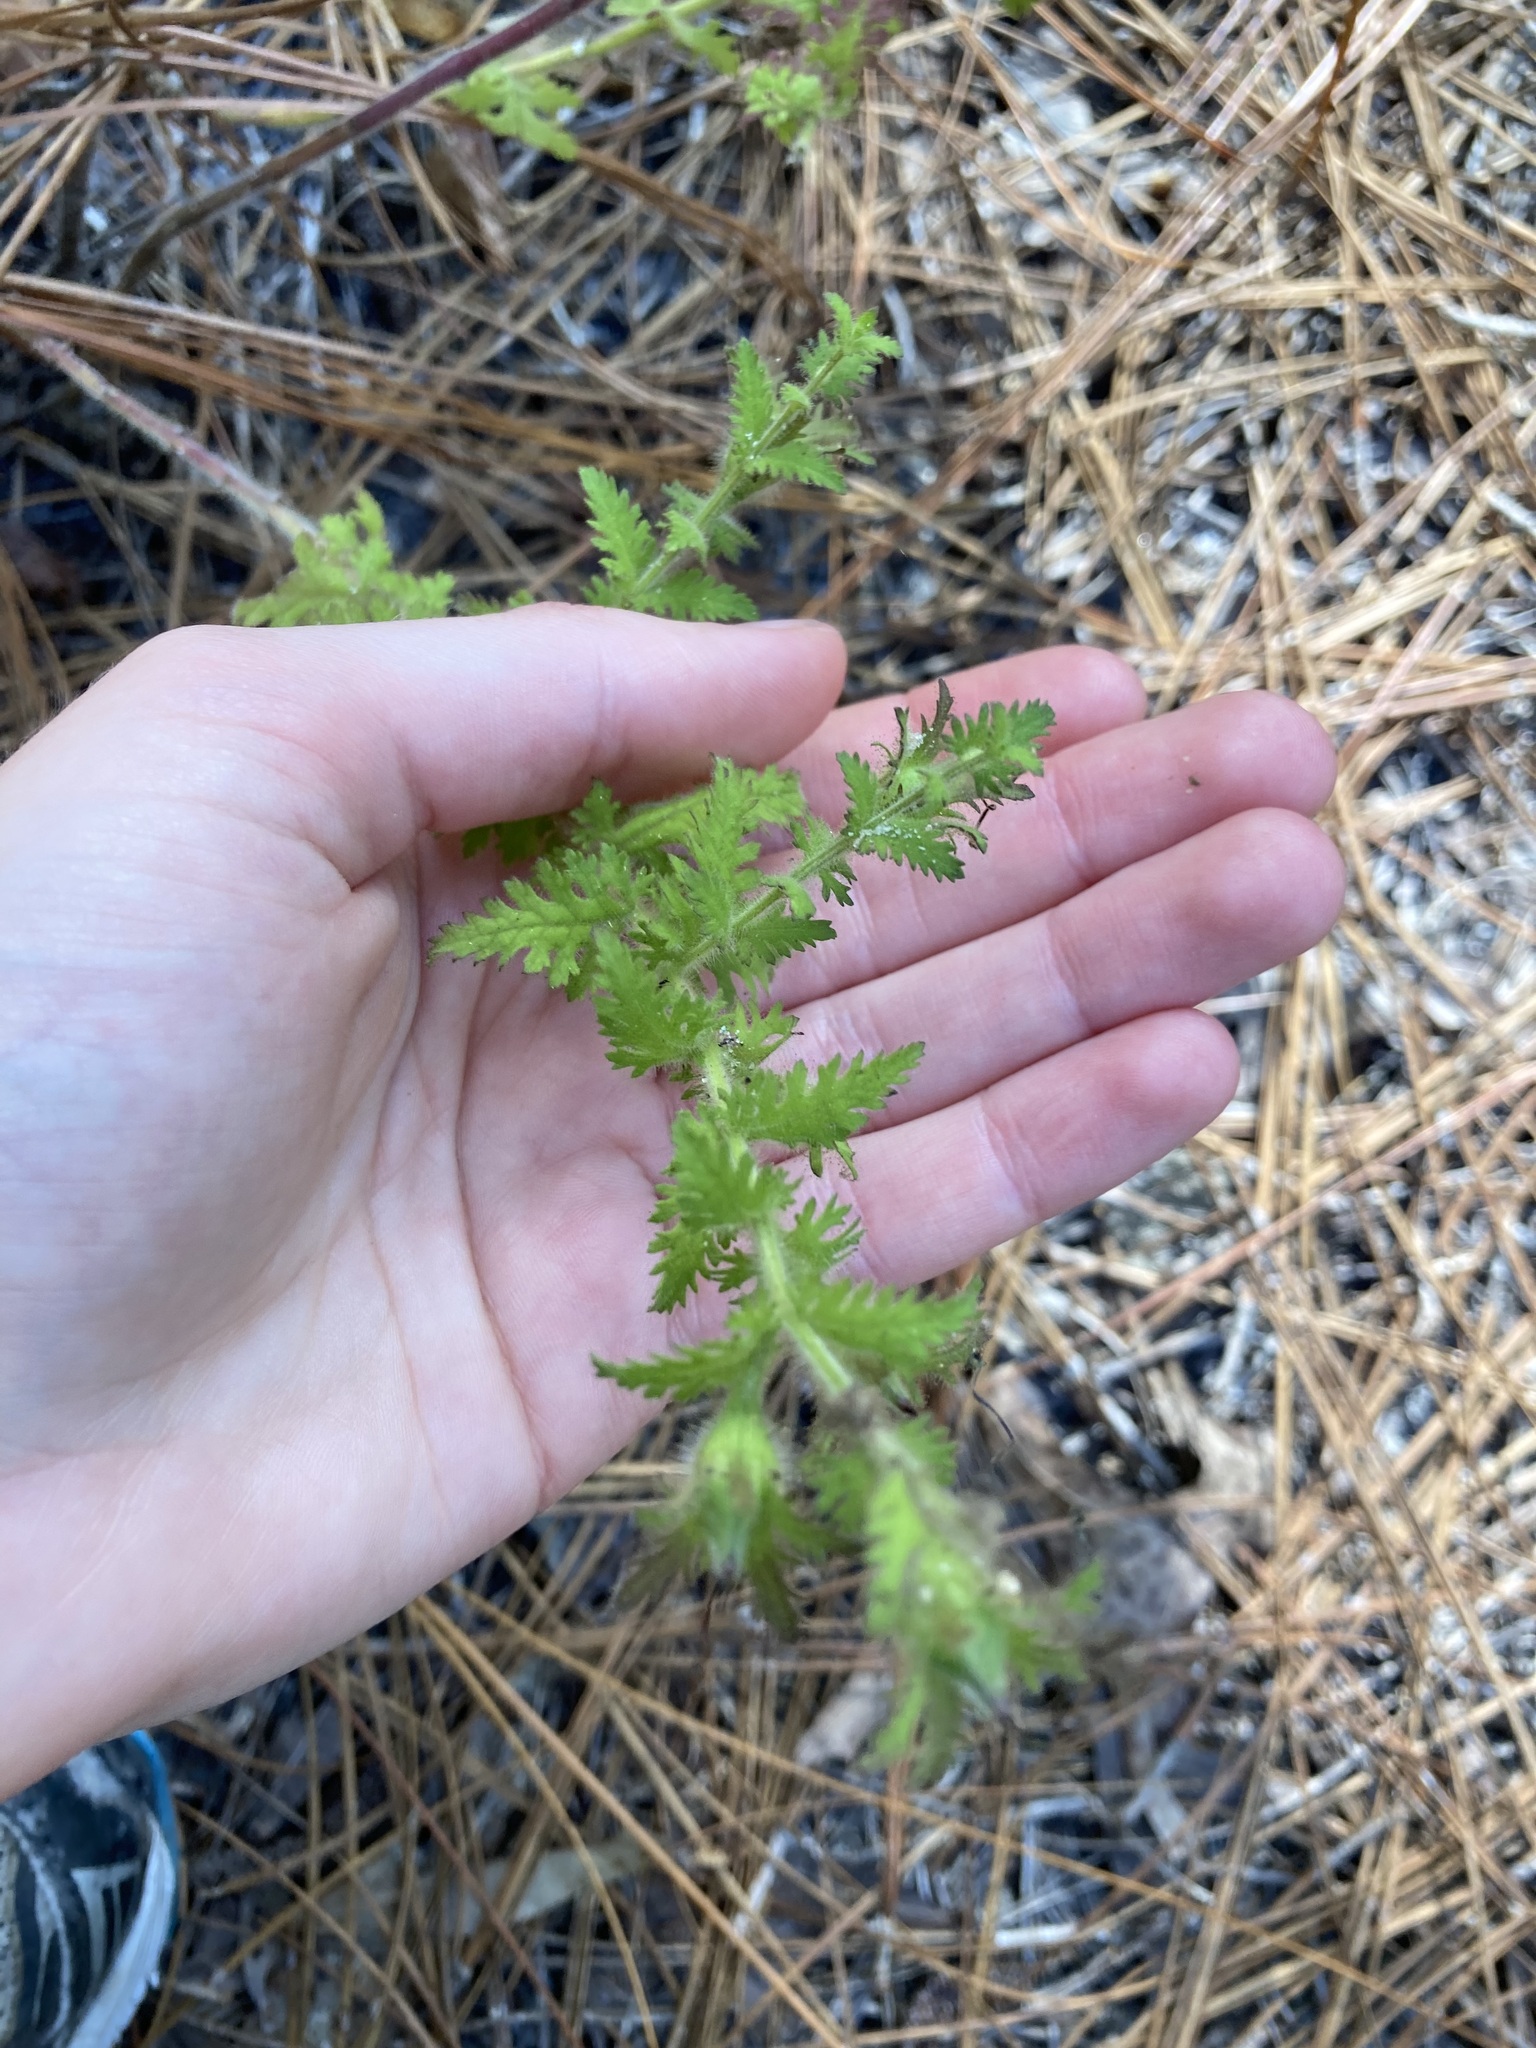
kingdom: Plantae
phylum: Tracheophyta
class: Magnoliopsida
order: Lamiales
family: Orobanchaceae
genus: Aureolaria
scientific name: Aureolaria pectinata
